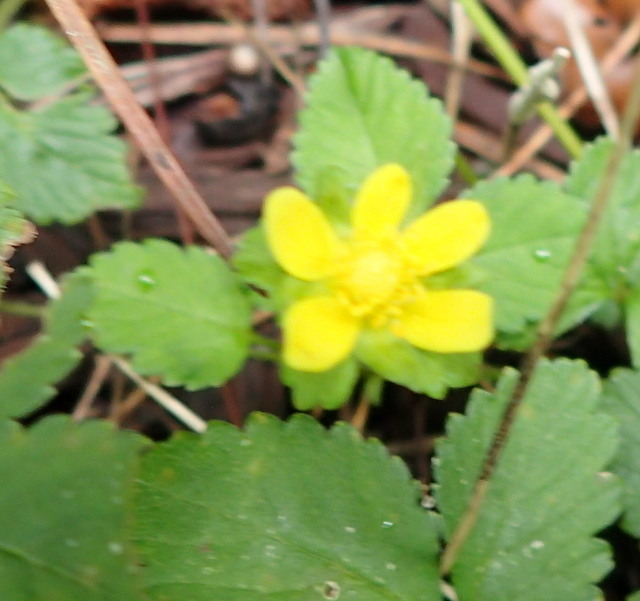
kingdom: Plantae
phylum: Tracheophyta
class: Magnoliopsida
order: Rosales
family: Rosaceae
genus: Potentilla
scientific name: Potentilla indica
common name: Yellow-flowered strawberry
